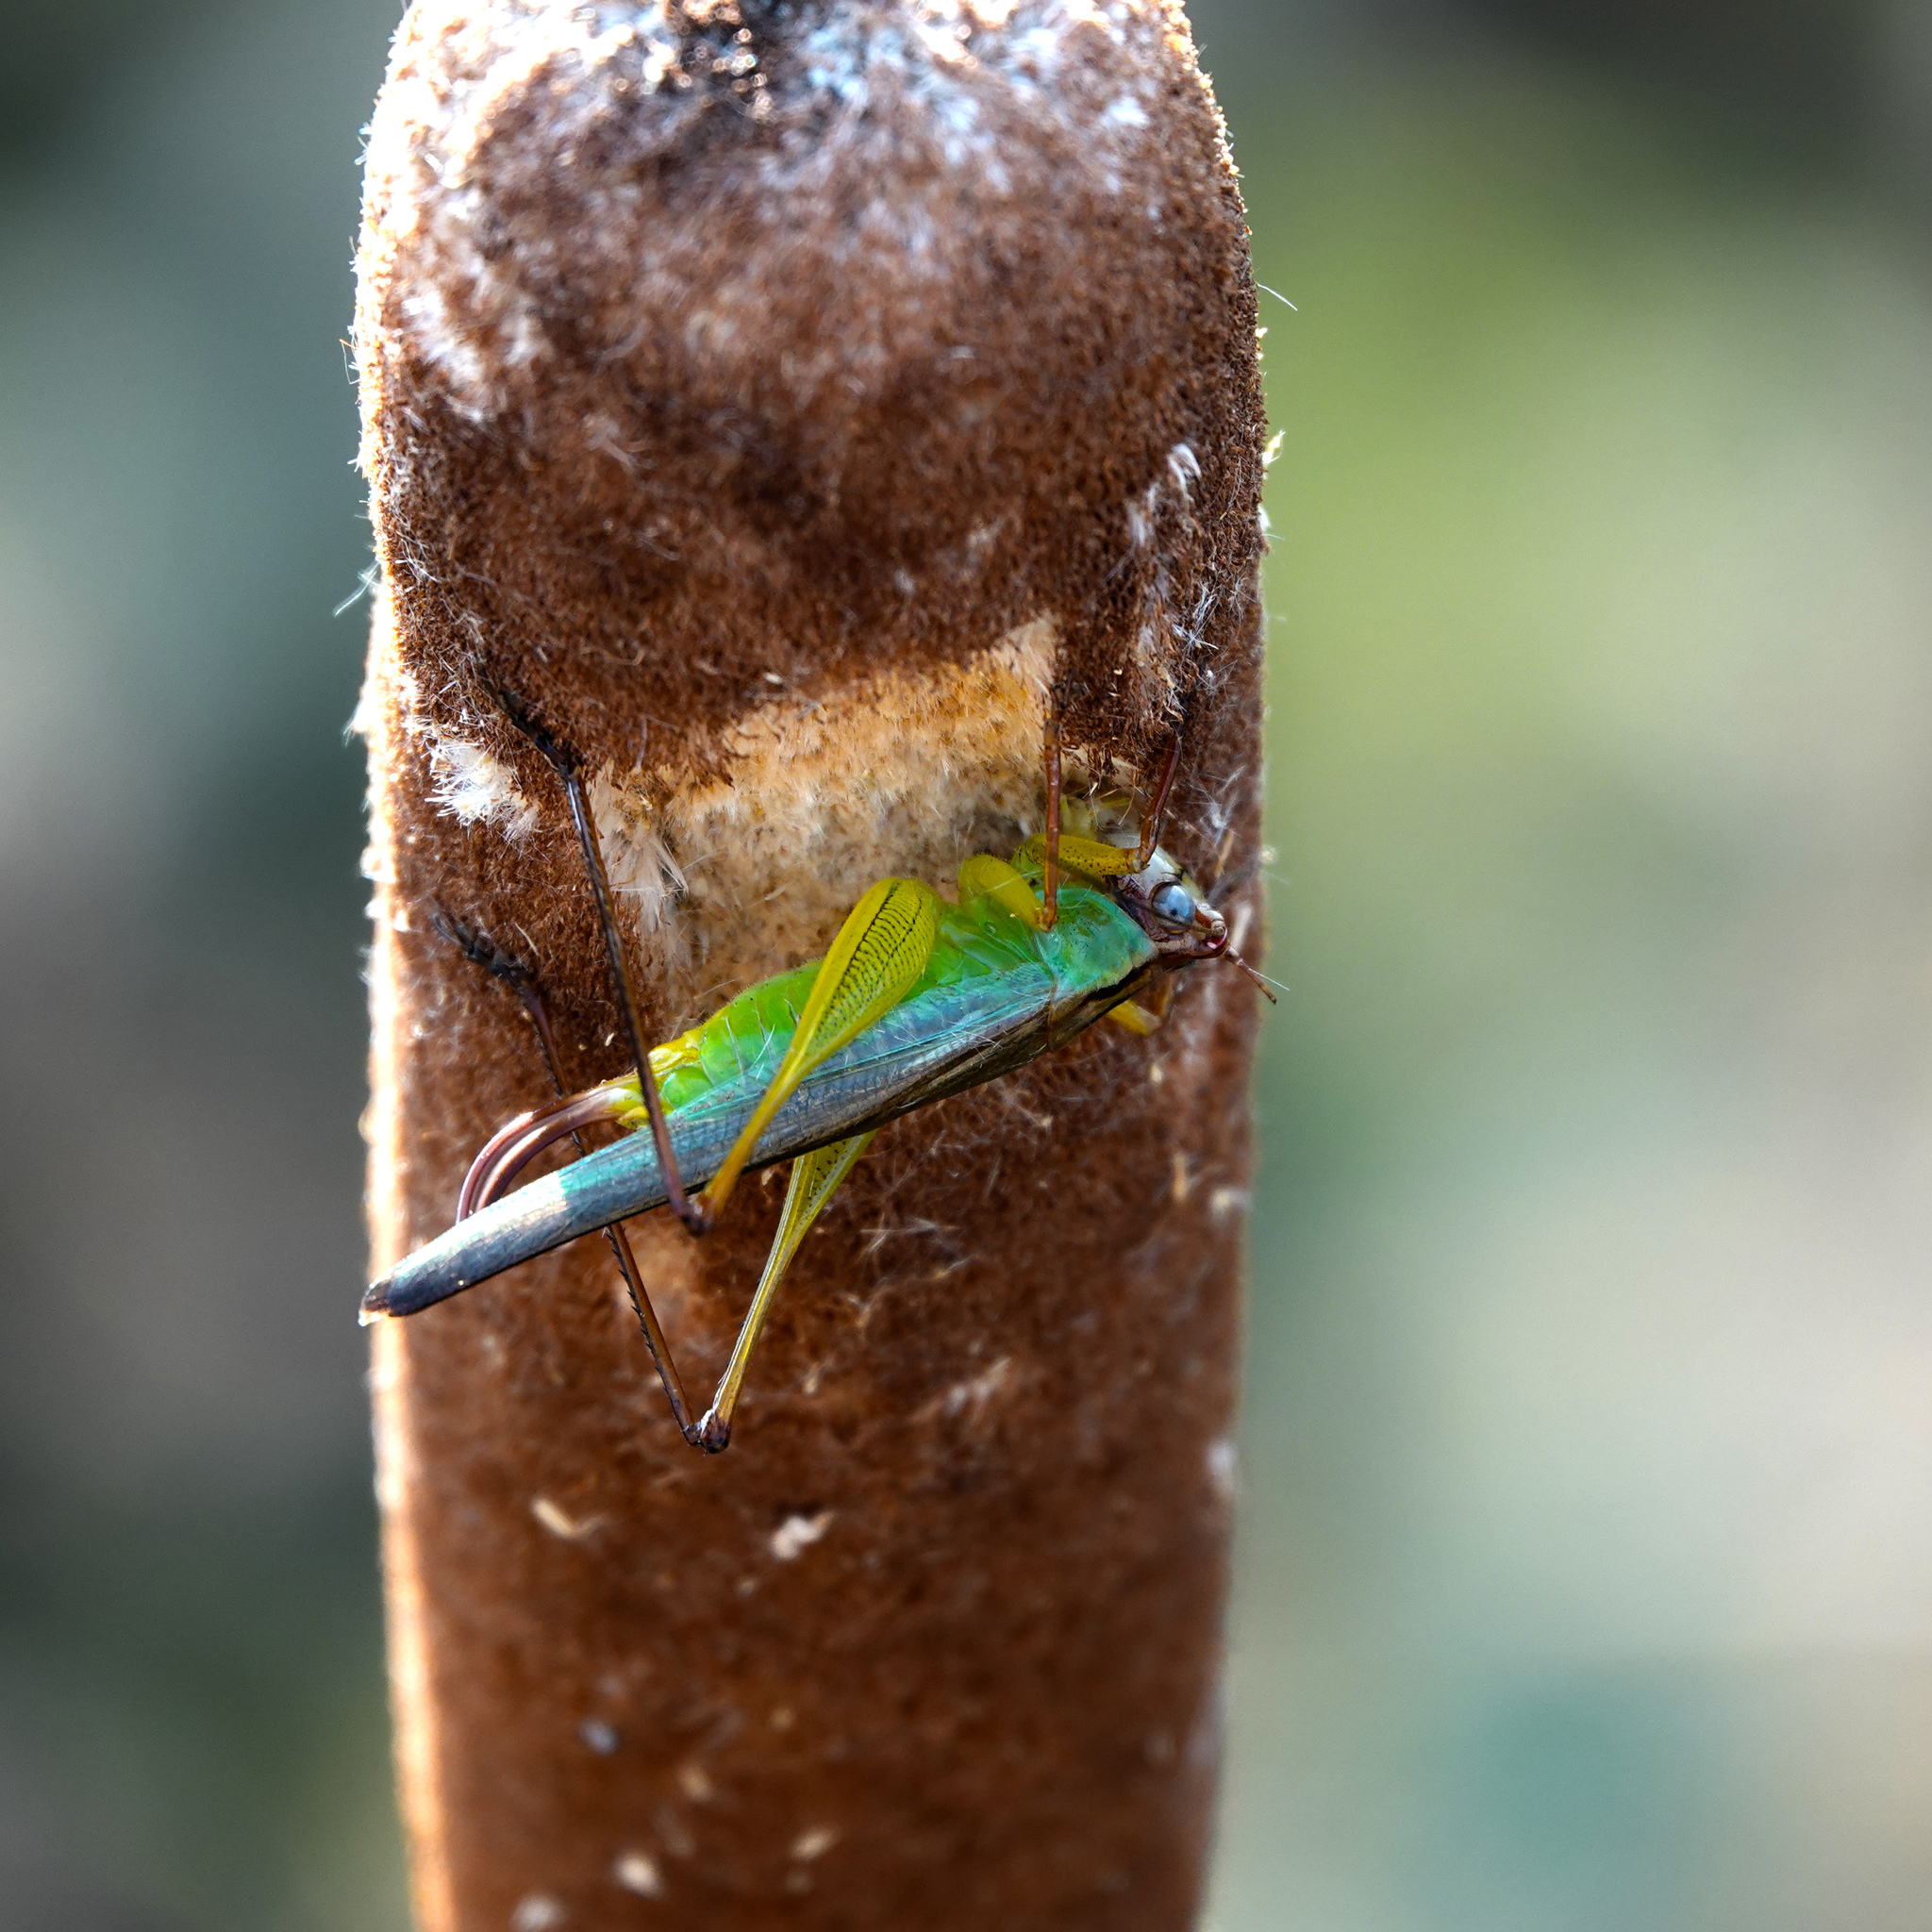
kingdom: Animalia
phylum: Arthropoda
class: Insecta
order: Orthoptera
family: Tettigoniidae
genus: Orchelimum
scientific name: Orchelimum pulchellum
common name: Handsome meadow katydid
